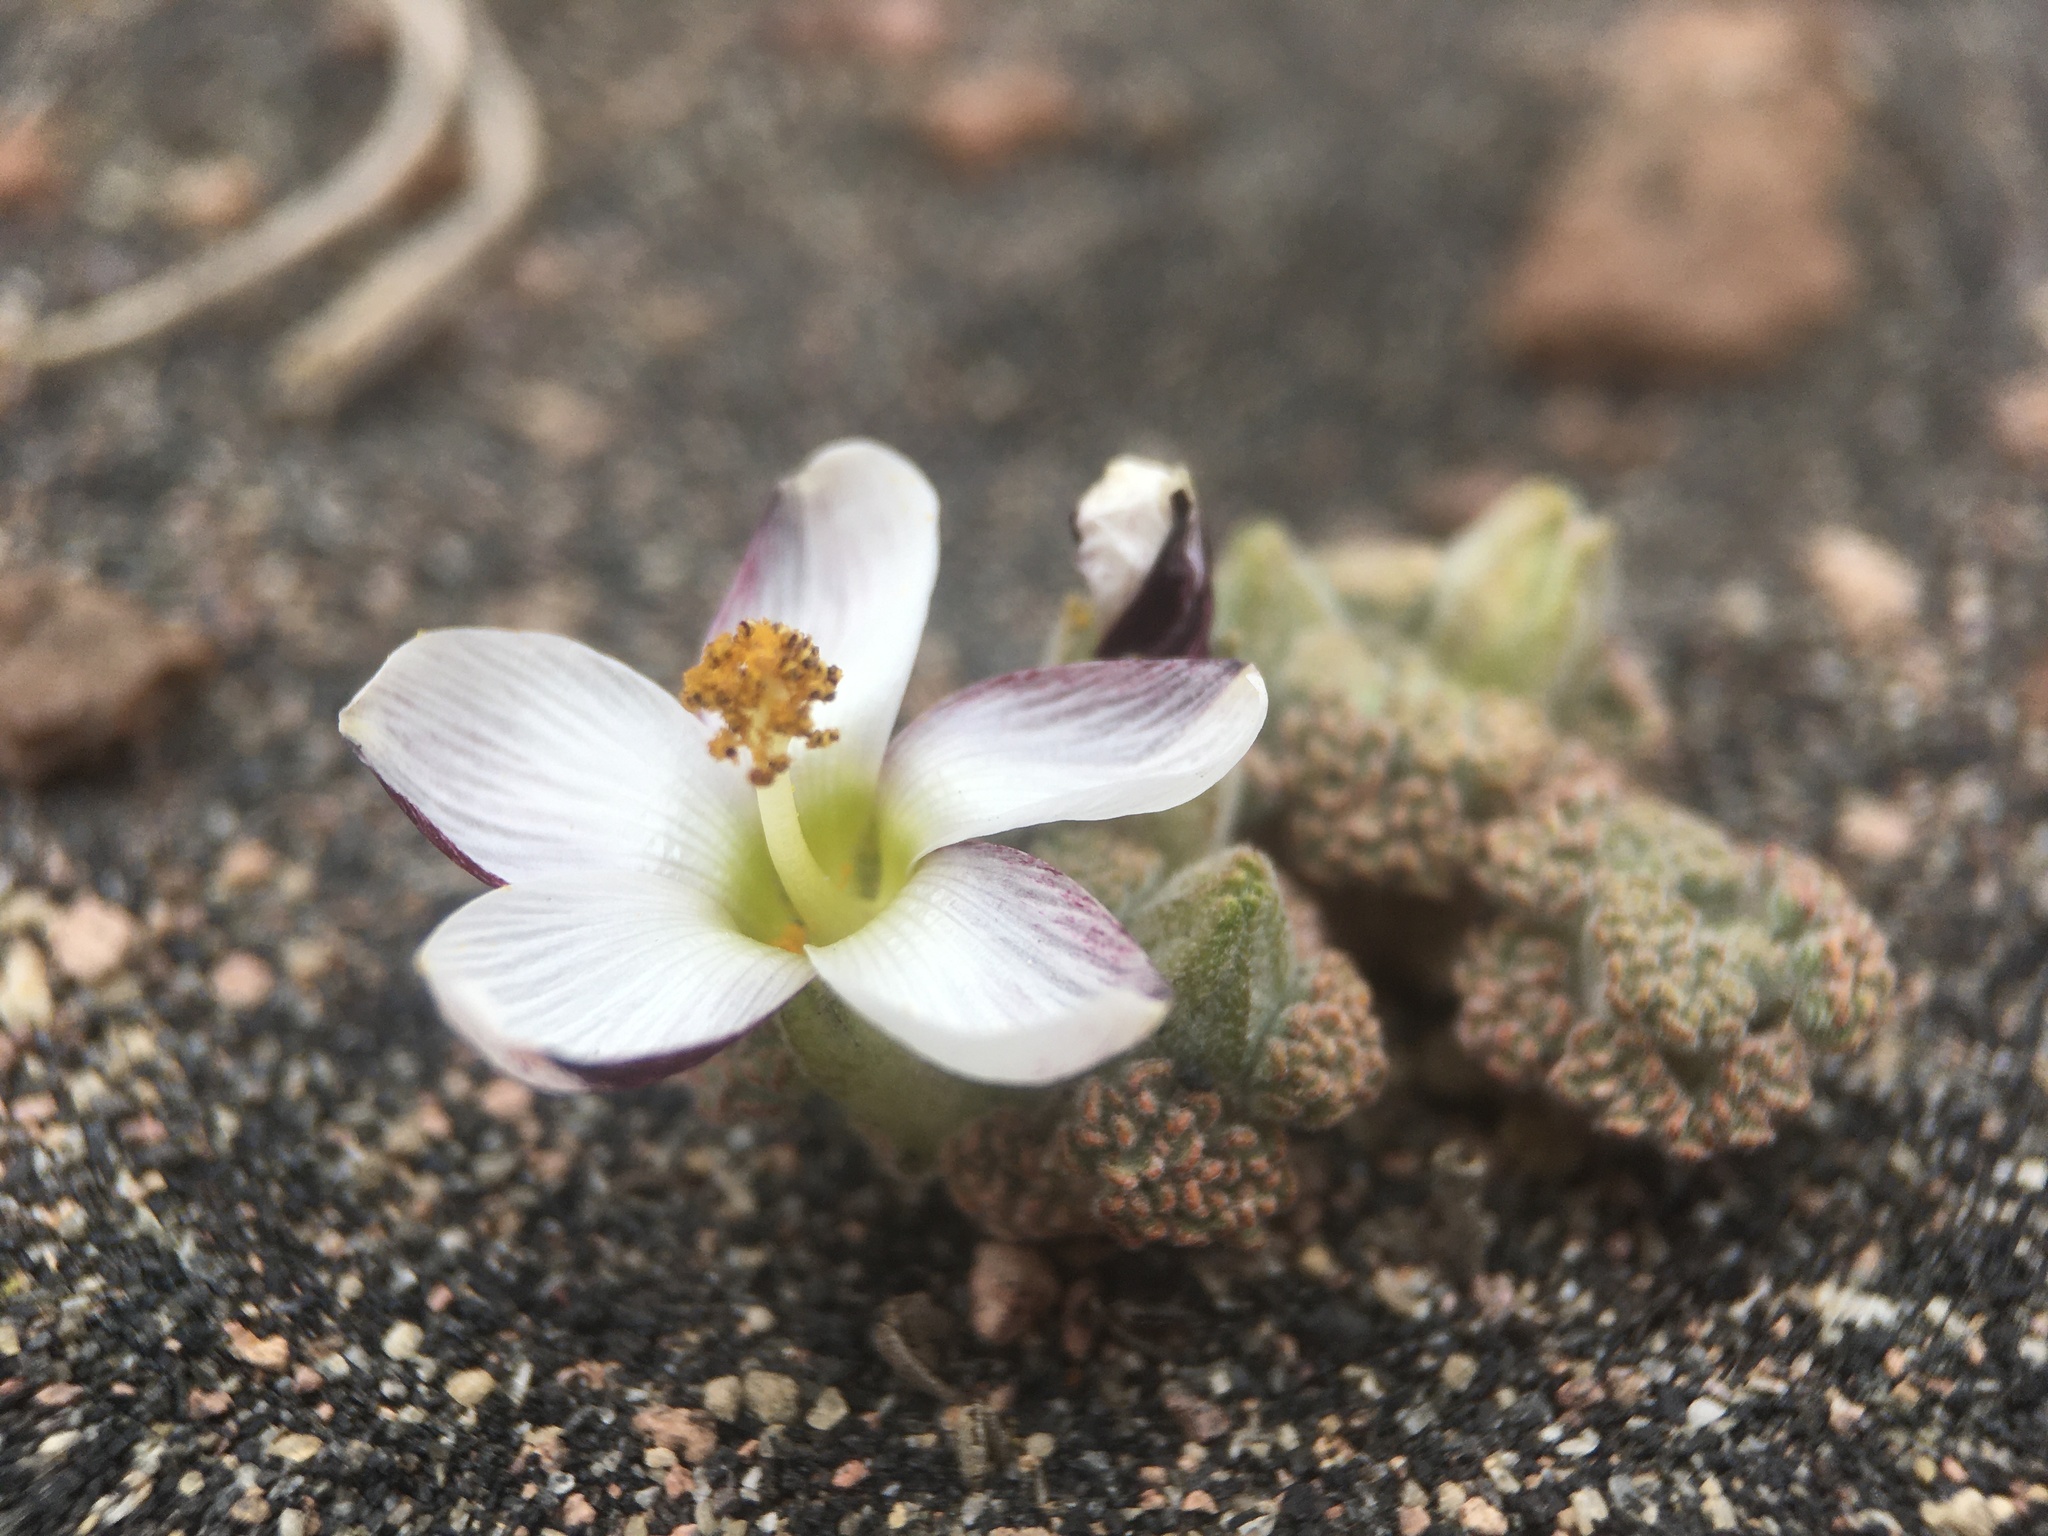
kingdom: Plantae
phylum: Tracheophyta
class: Magnoliopsida
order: Malvales
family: Malvaceae
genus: Nototriche
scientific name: Nototriche turritella
